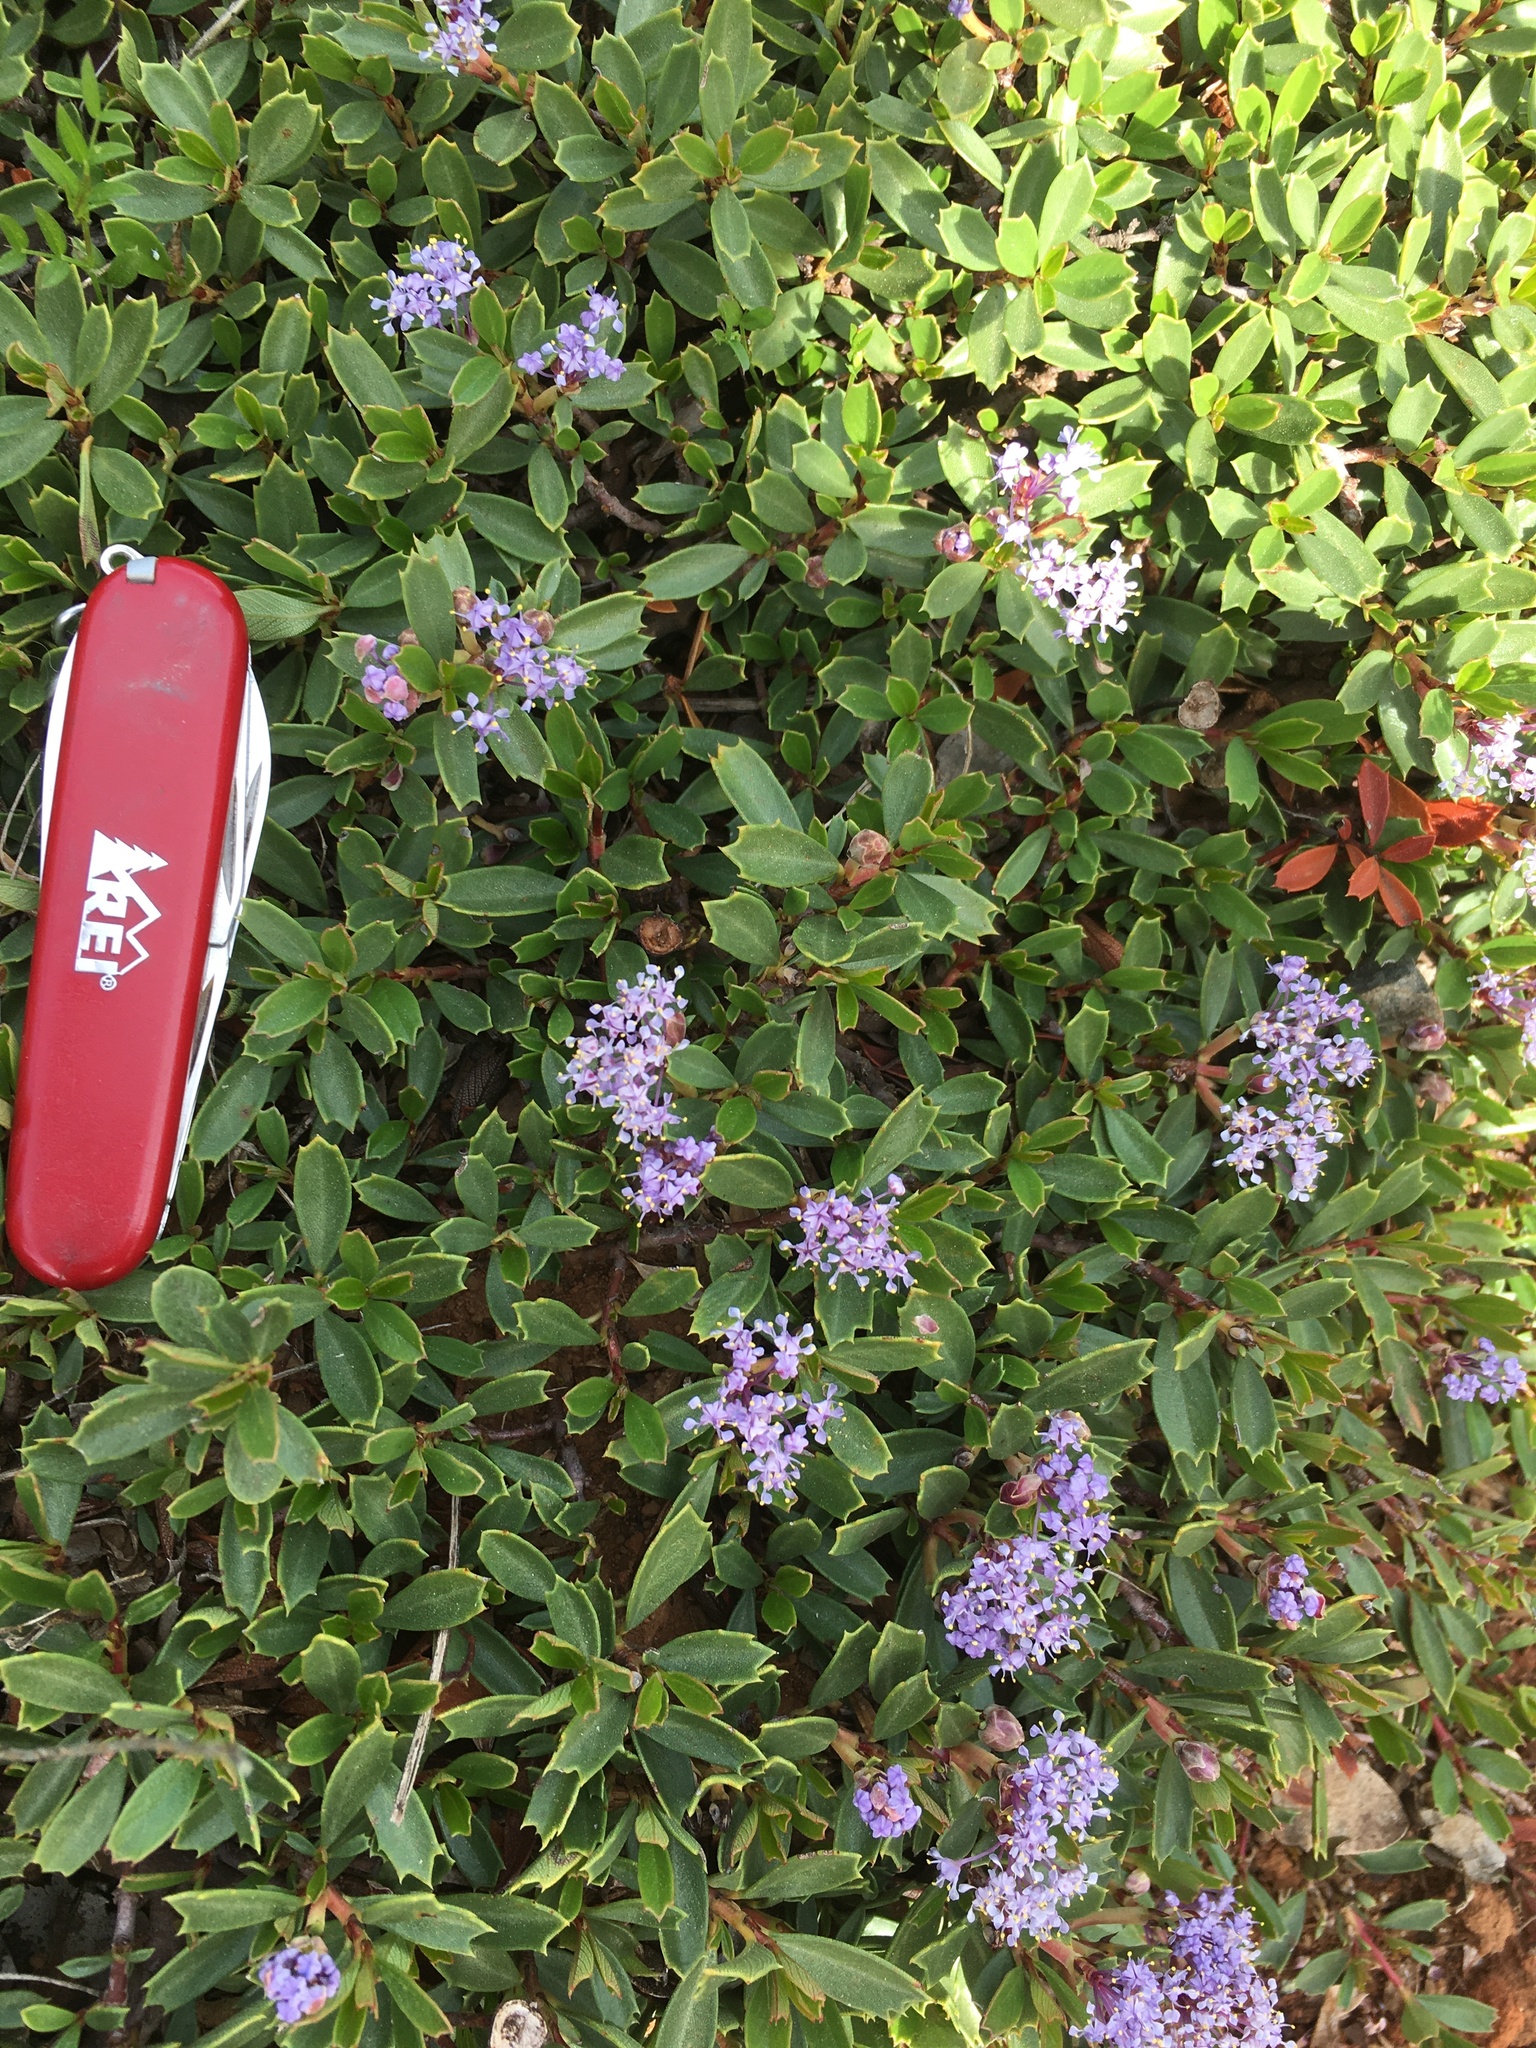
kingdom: Plantae
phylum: Tracheophyta
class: Magnoliopsida
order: Rosales
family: Rhamnaceae
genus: Ceanothus
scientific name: Ceanothus prostratus
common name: Mahala-mat
